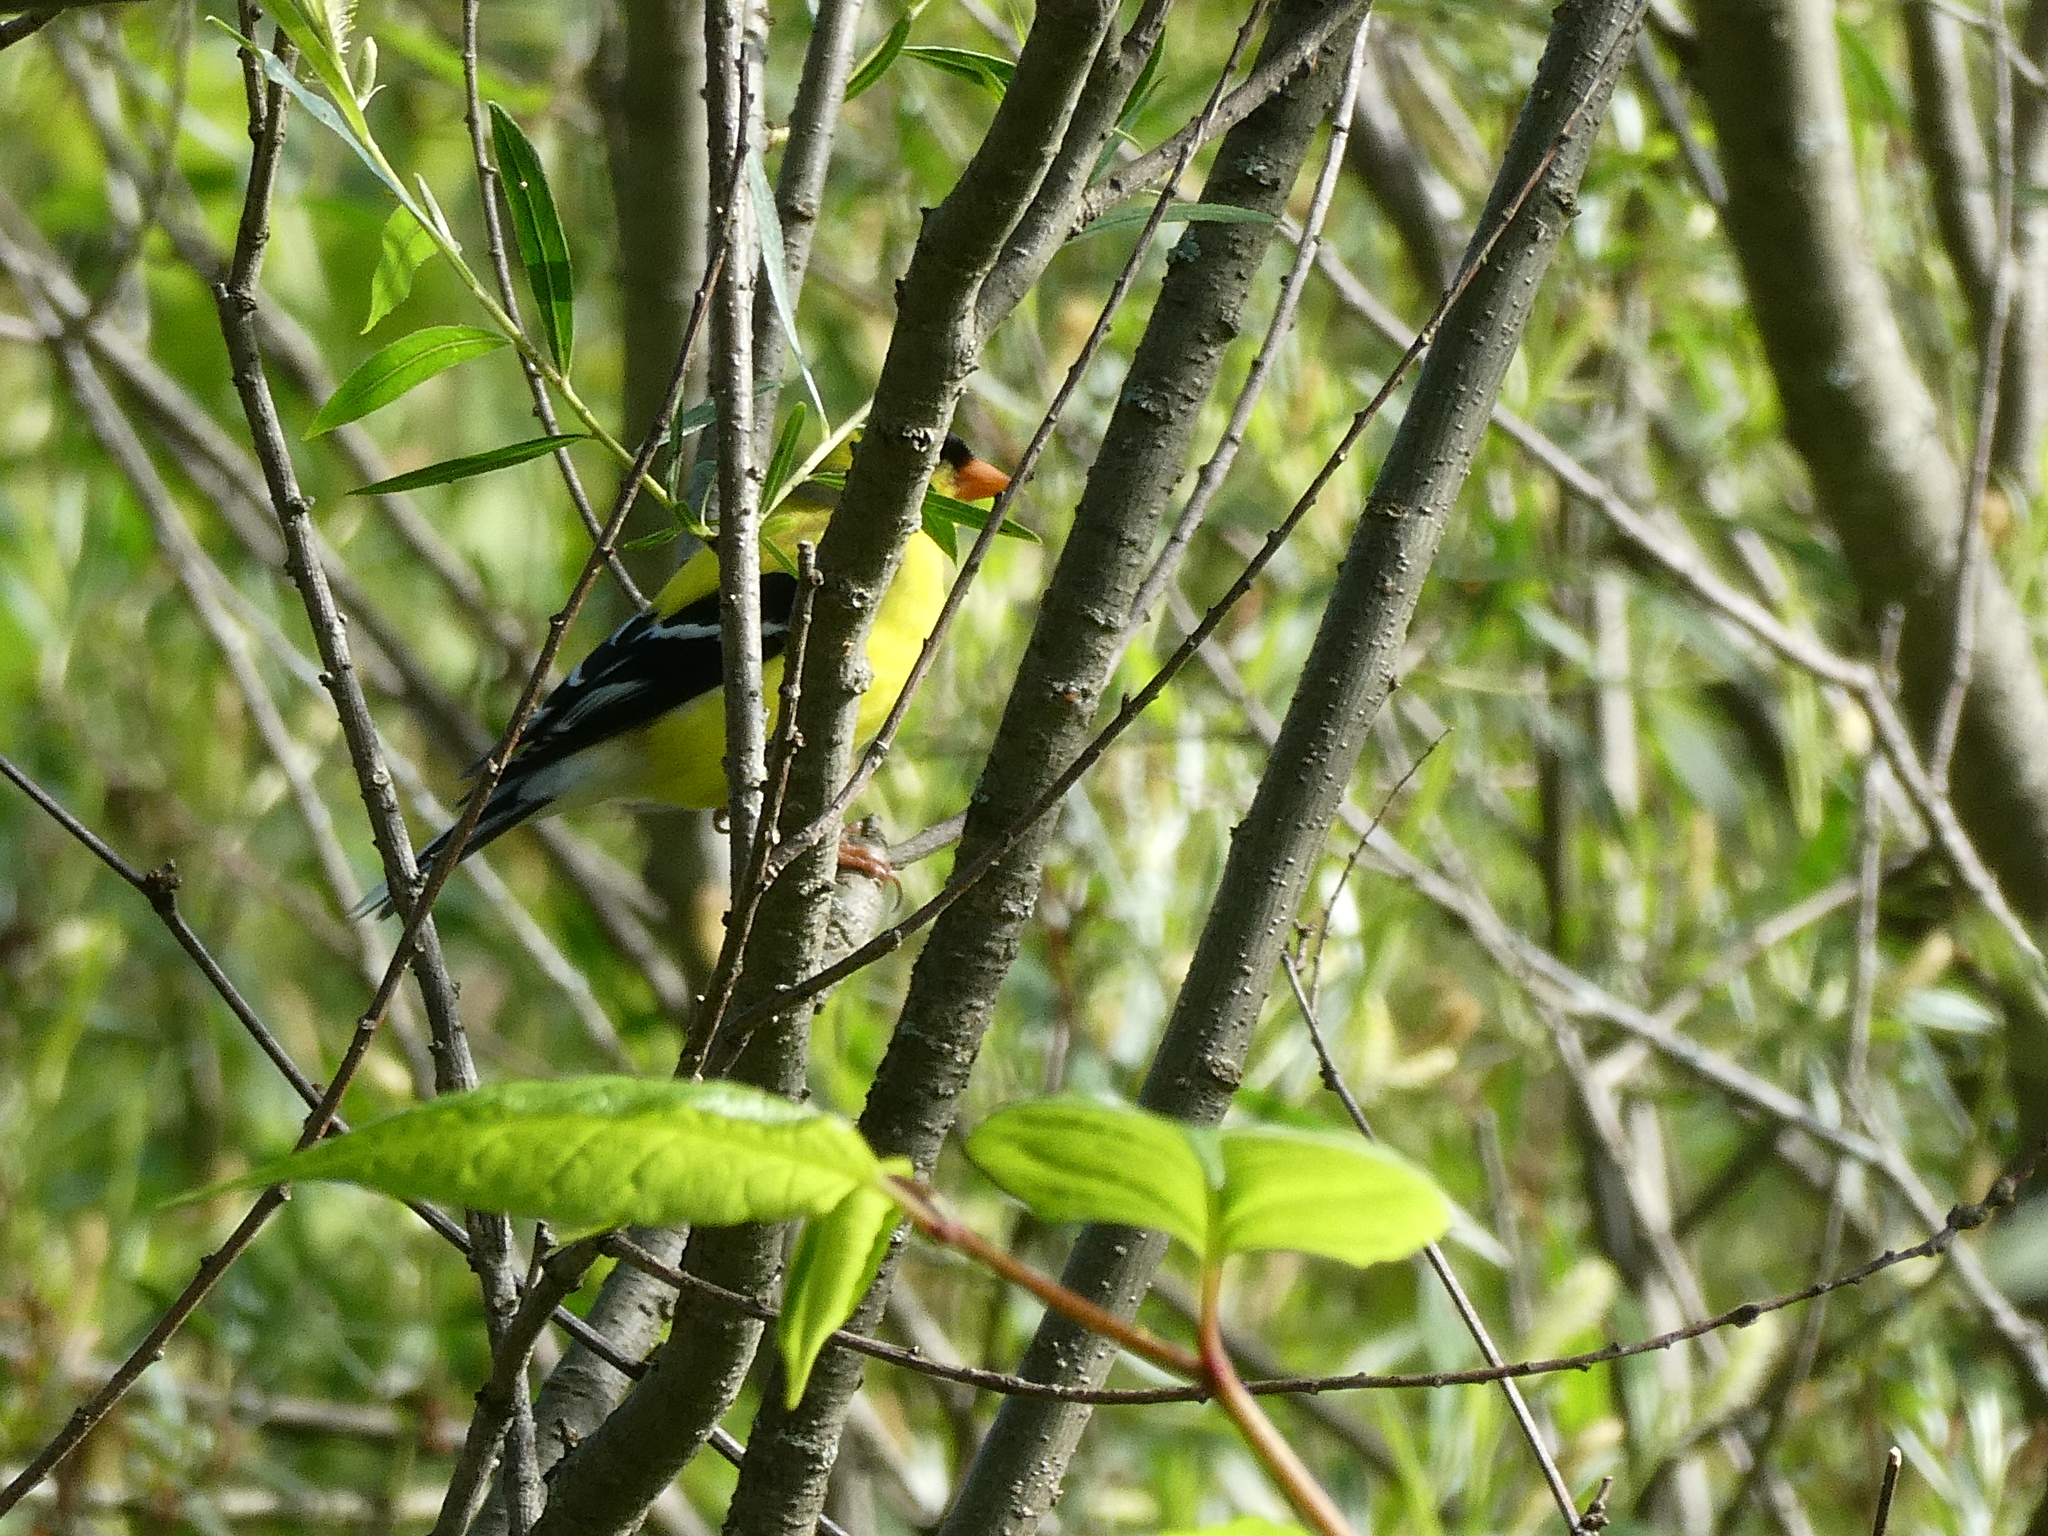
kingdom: Animalia
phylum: Chordata
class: Aves
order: Passeriformes
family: Fringillidae
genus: Spinus
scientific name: Spinus tristis
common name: American goldfinch
